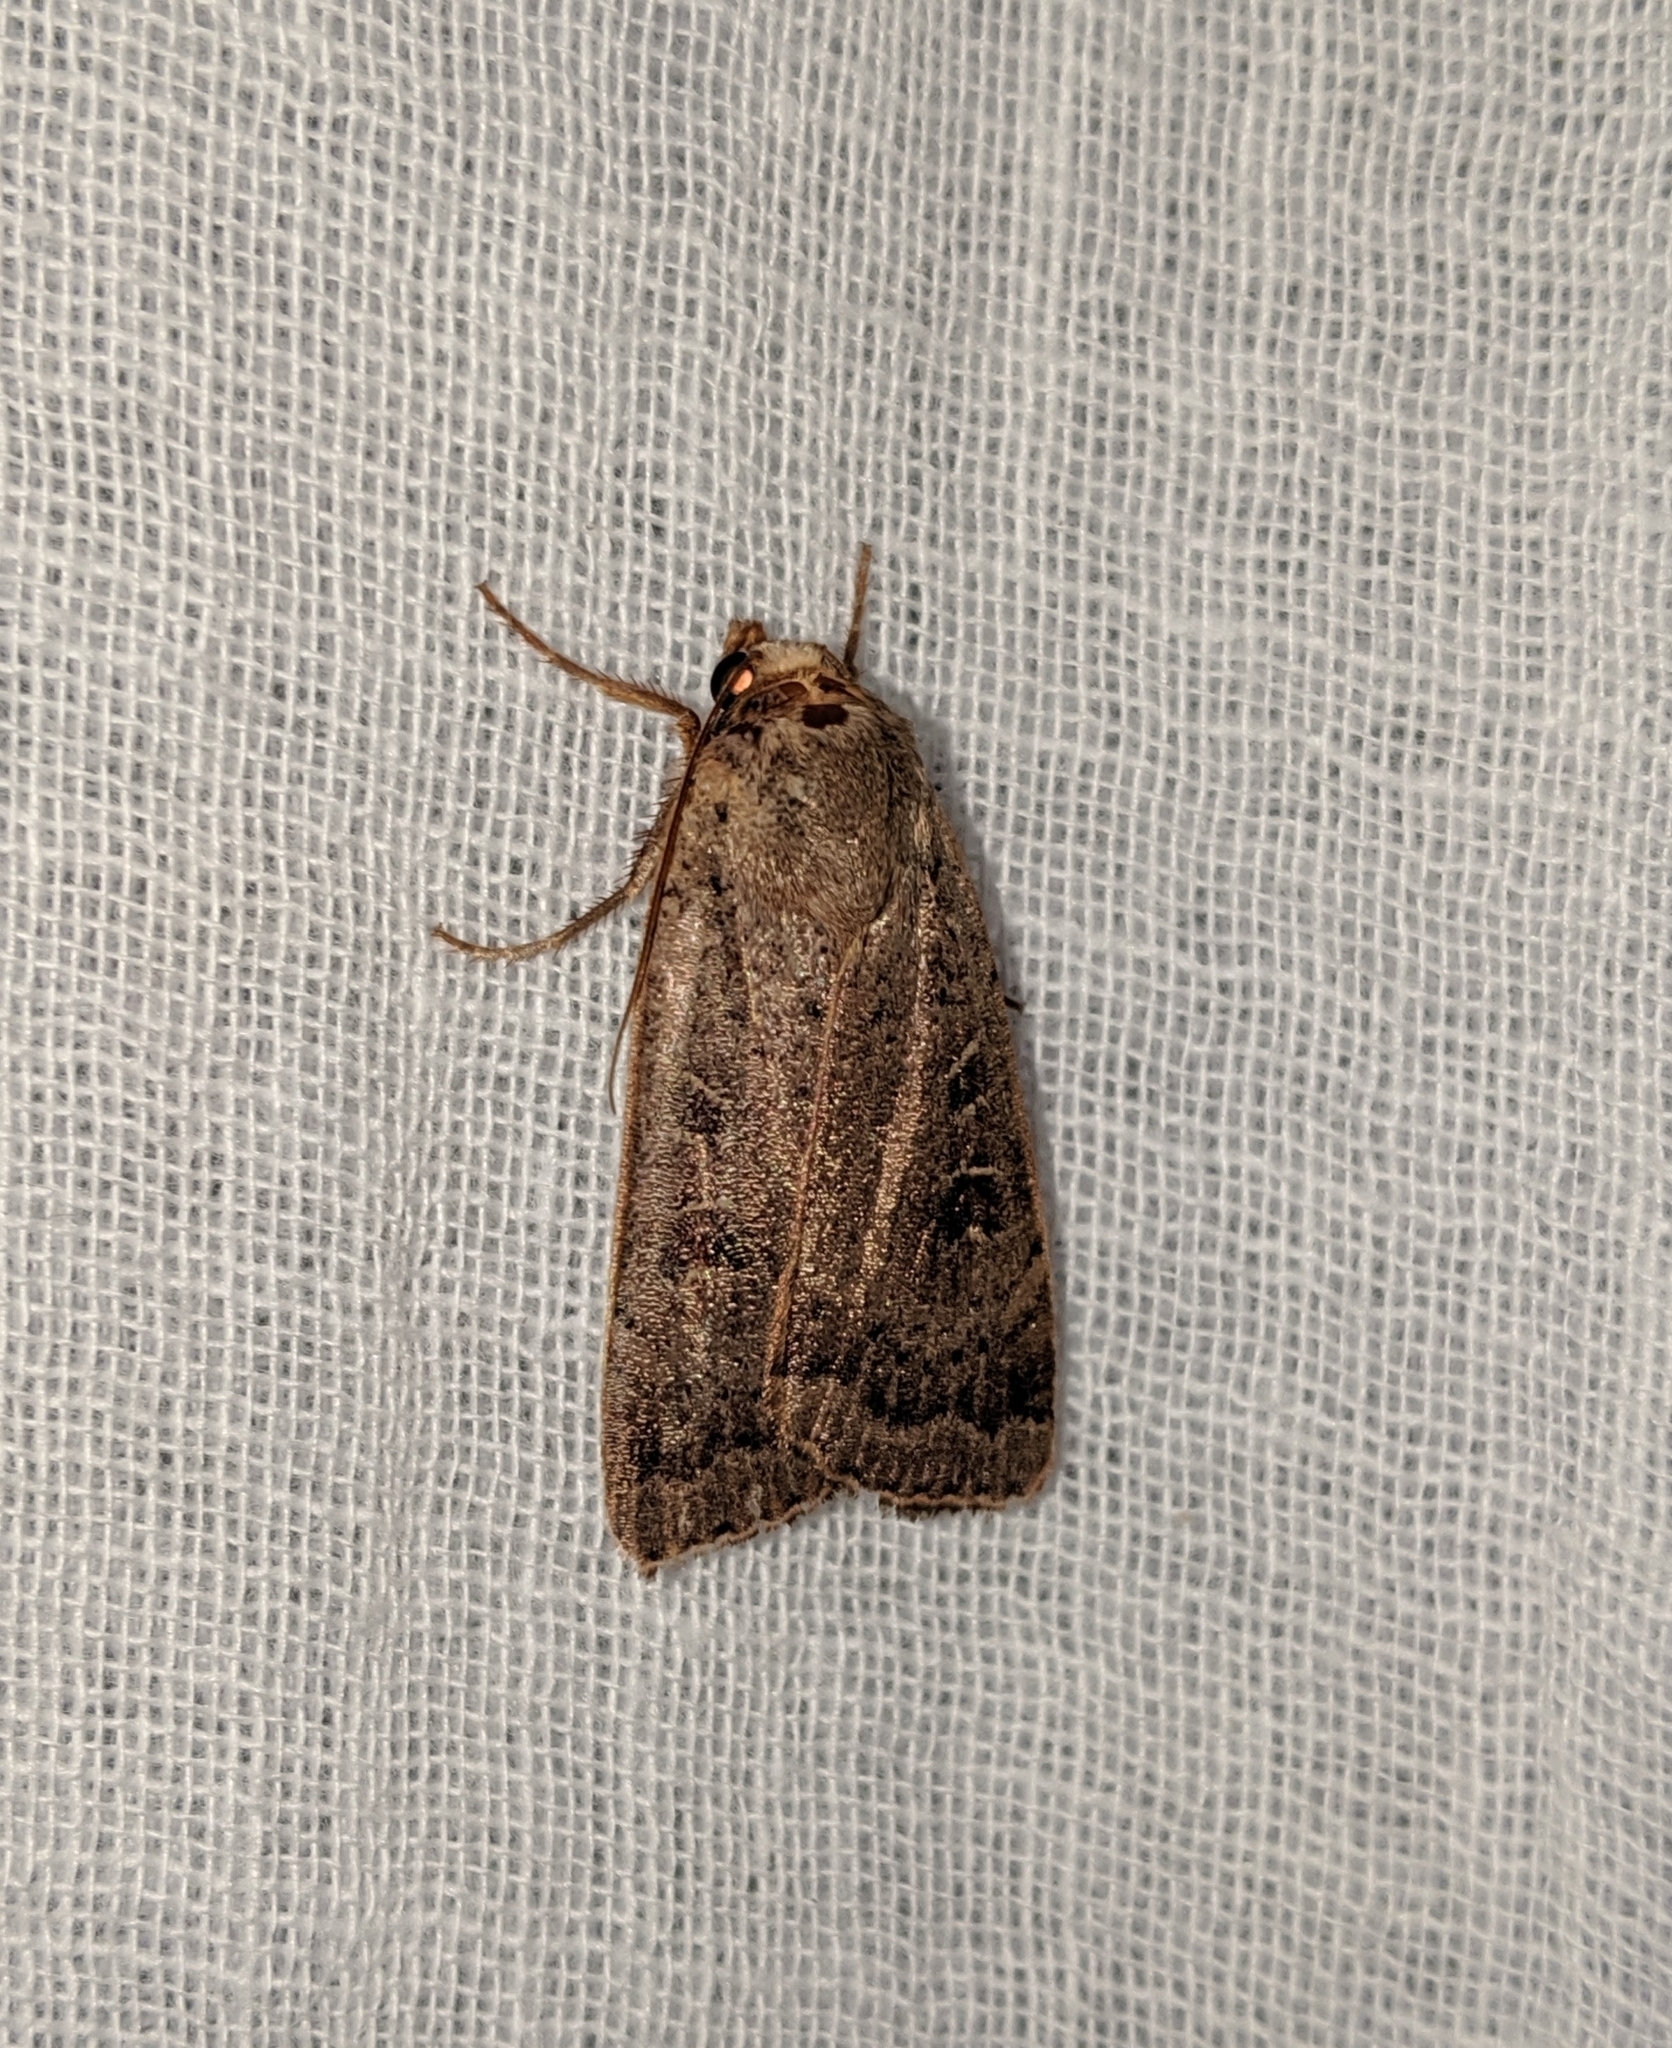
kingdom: Animalia
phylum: Arthropoda
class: Insecta
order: Lepidoptera
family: Noctuidae
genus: Noctua
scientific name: Noctua comes
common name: Lesser yellow underwing
